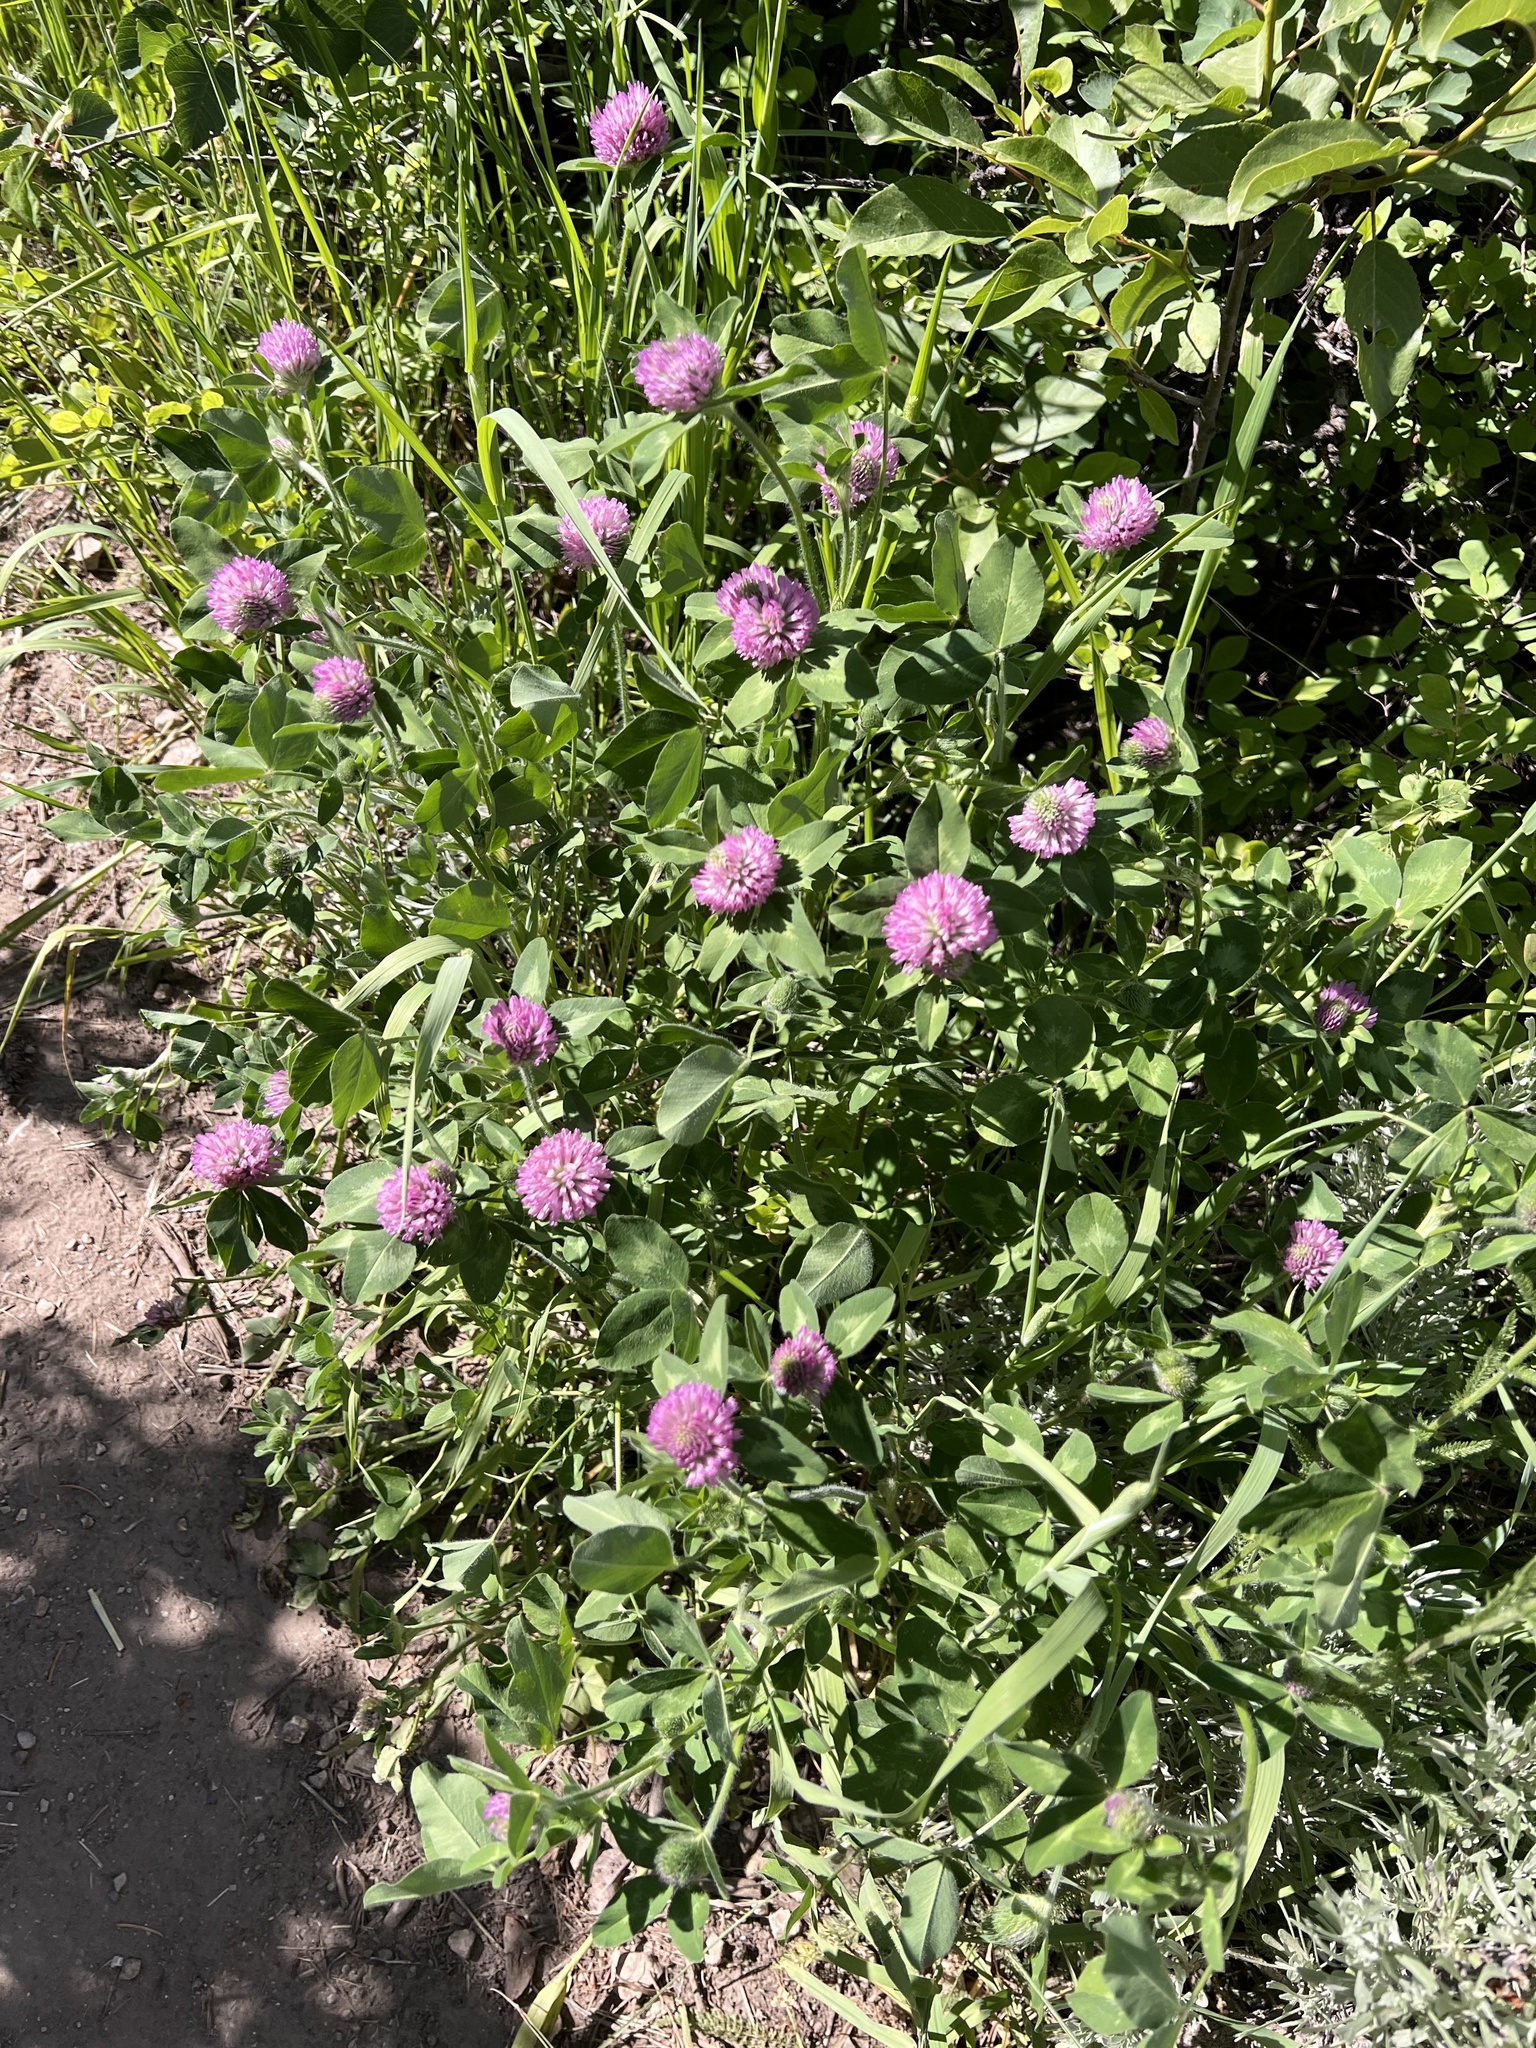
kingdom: Plantae
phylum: Tracheophyta
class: Magnoliopsida
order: Fabales
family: Fabaceae
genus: Trifolium
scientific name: Trifolium pratense
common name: Red clover
